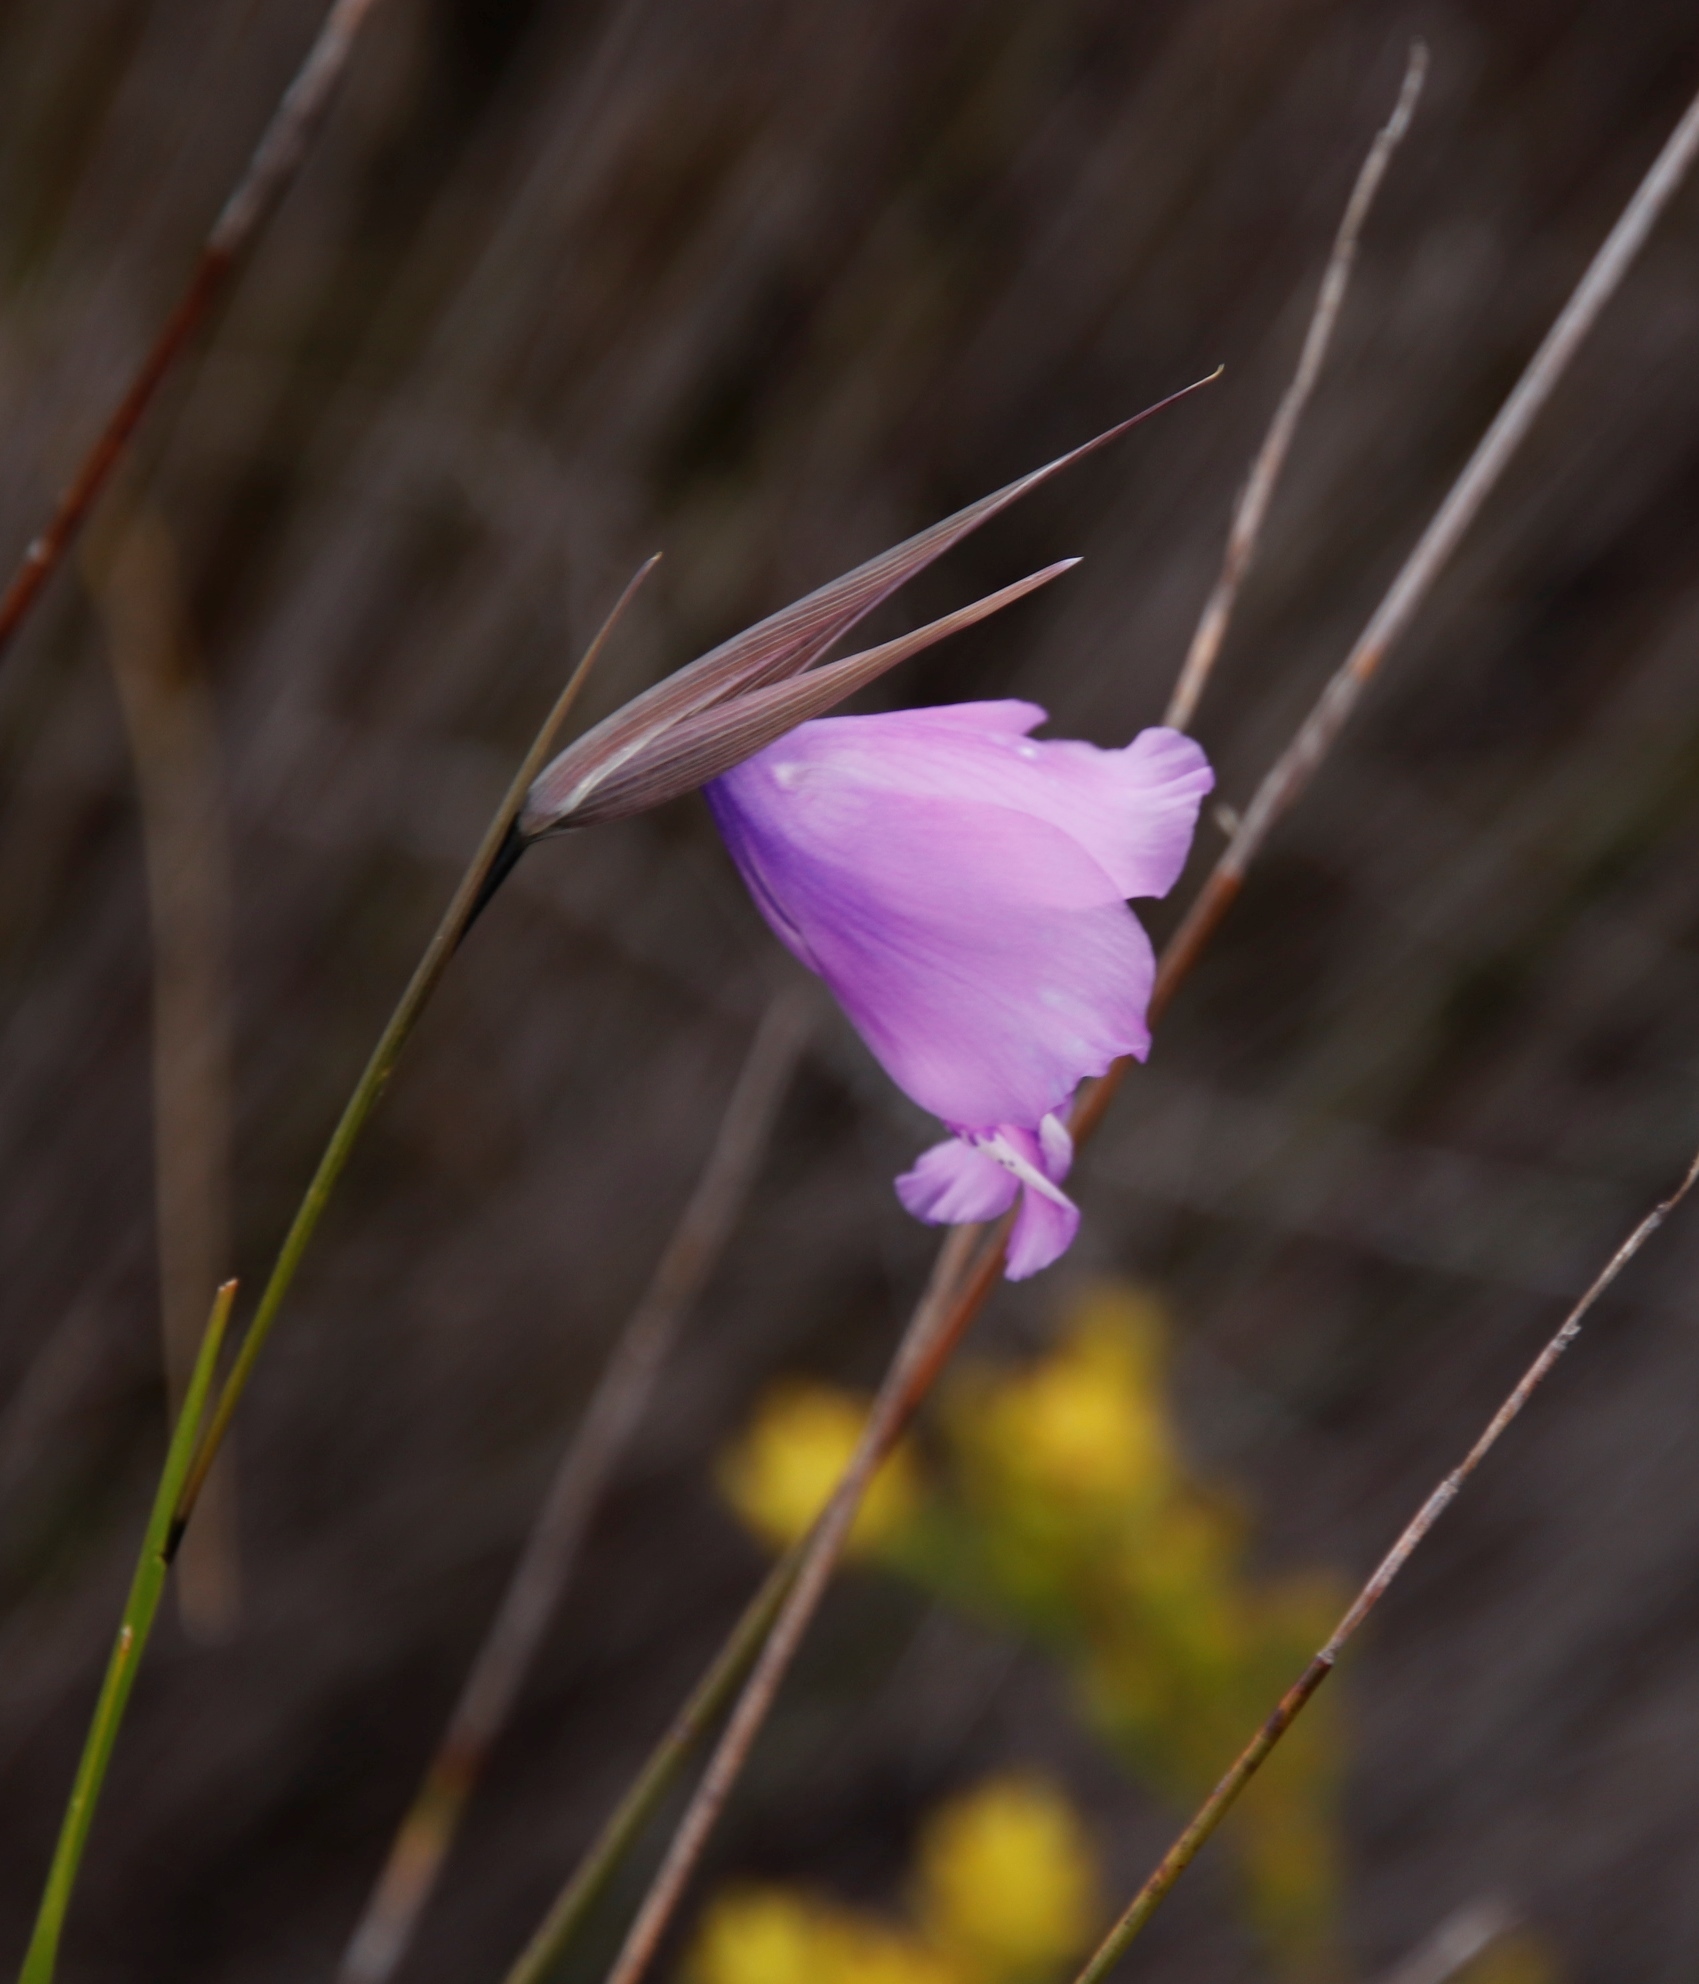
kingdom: Plantae
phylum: Tracheophyta
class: Liliopsida
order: Asparagales
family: Iridaceae
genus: Gladiolus
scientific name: Gladiolus bullatus
